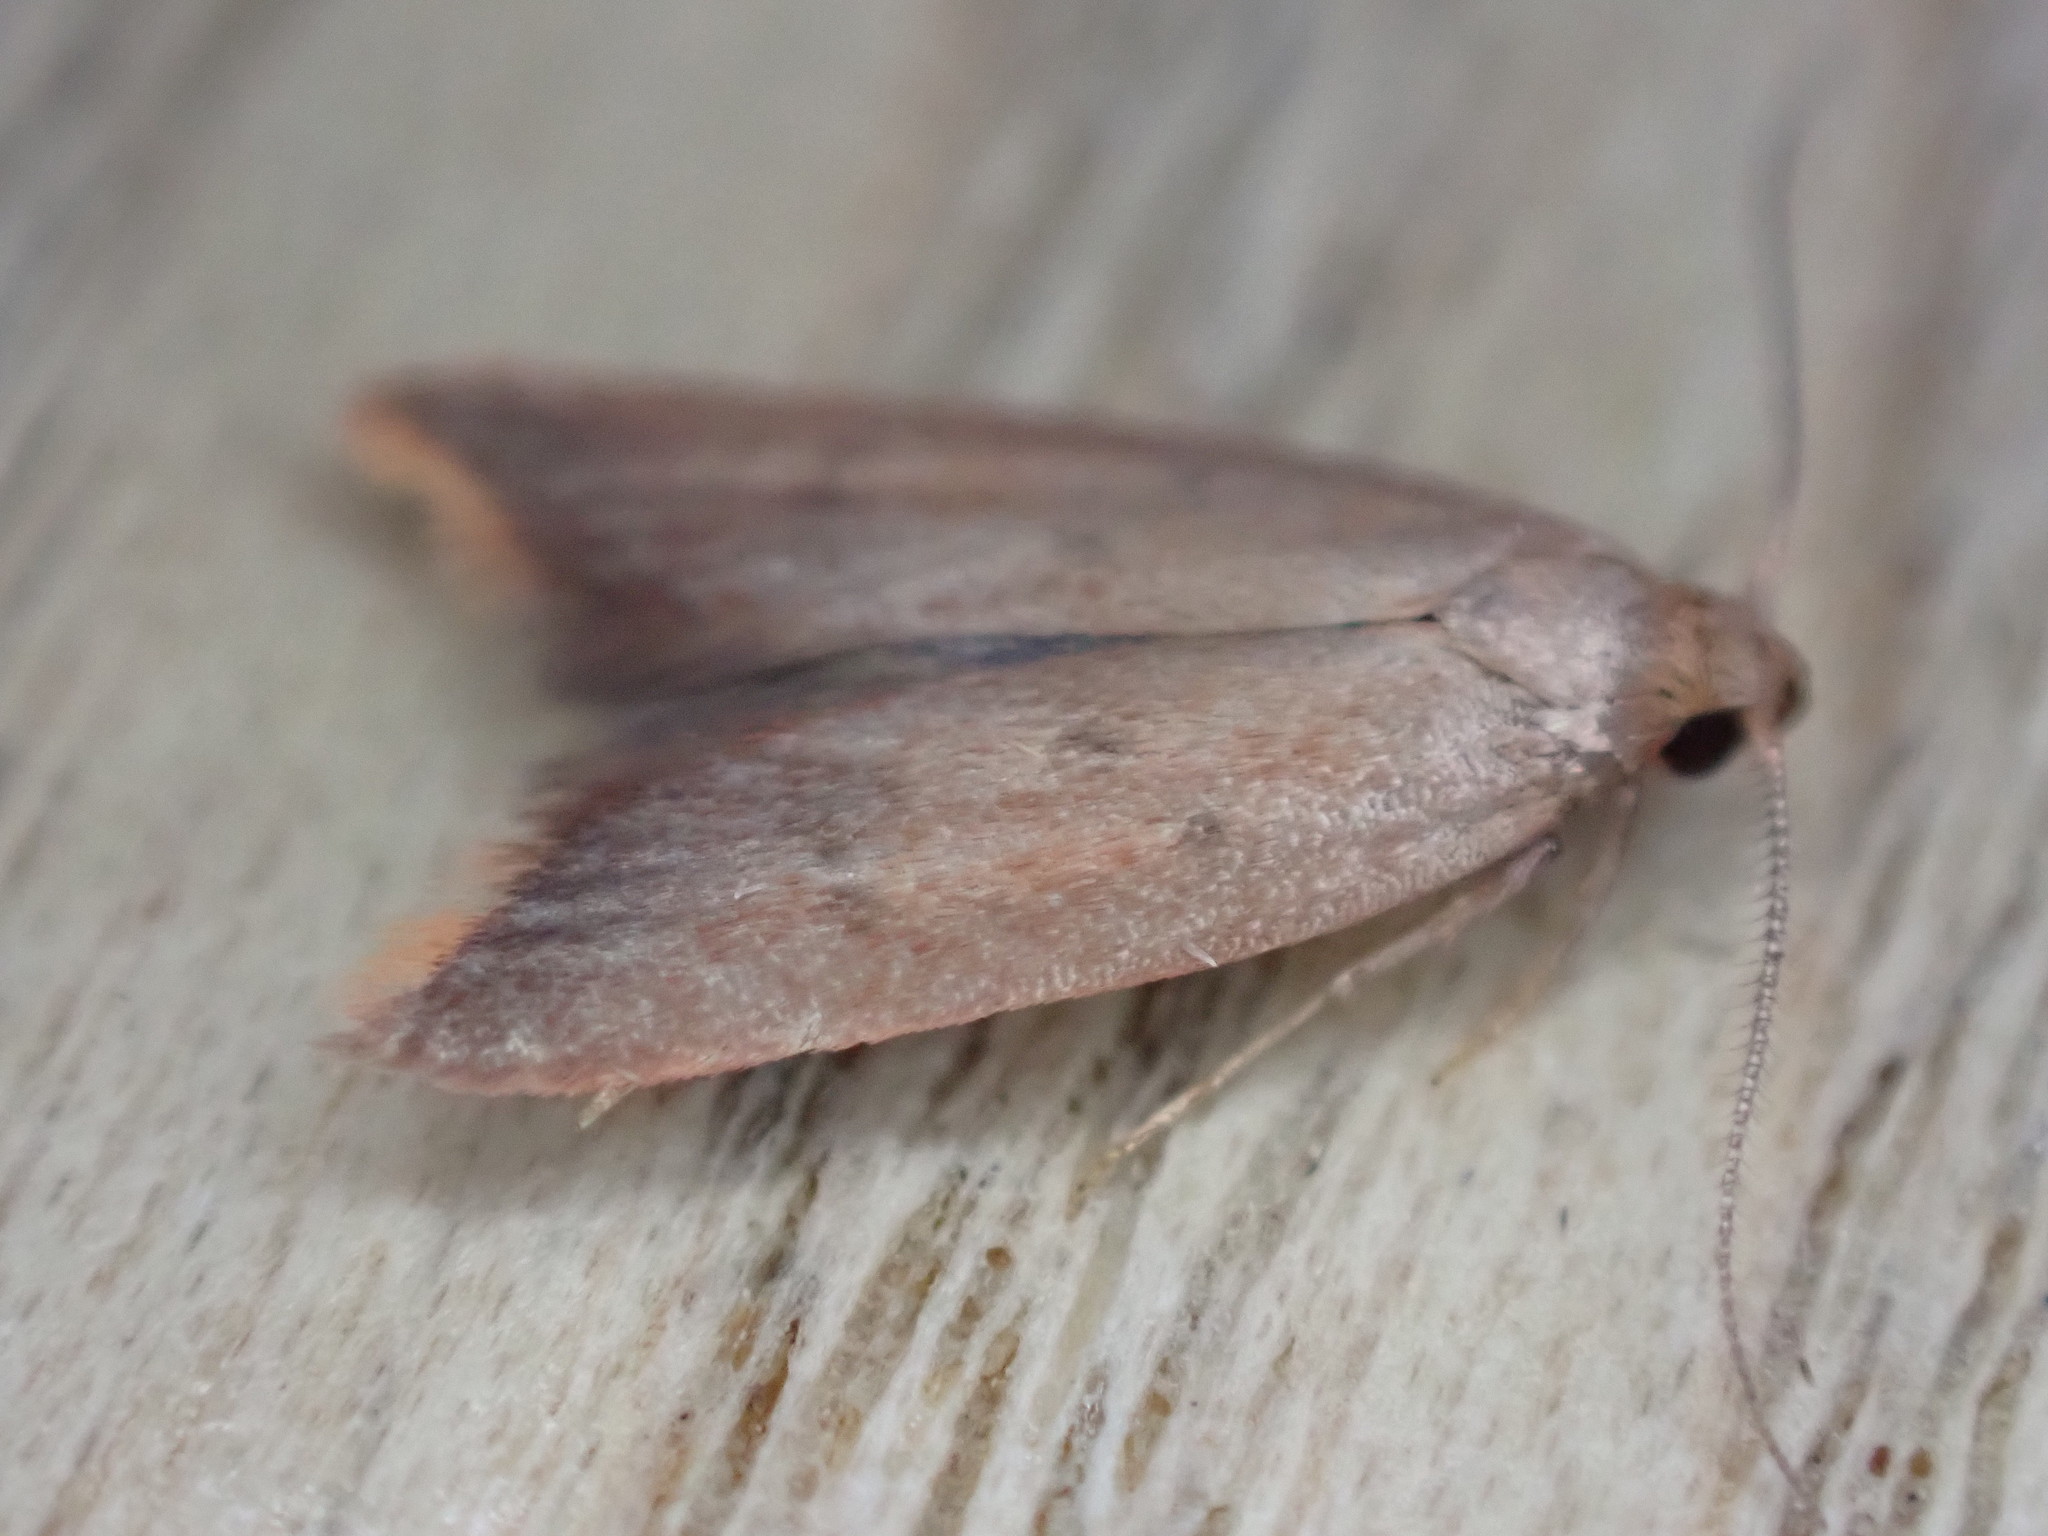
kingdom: Animalia
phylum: Arthropoda
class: Insecta
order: Lepidoptera
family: Oecophoridae
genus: Tachystola
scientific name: Tachystola acroxantha
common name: Ruddy streak
